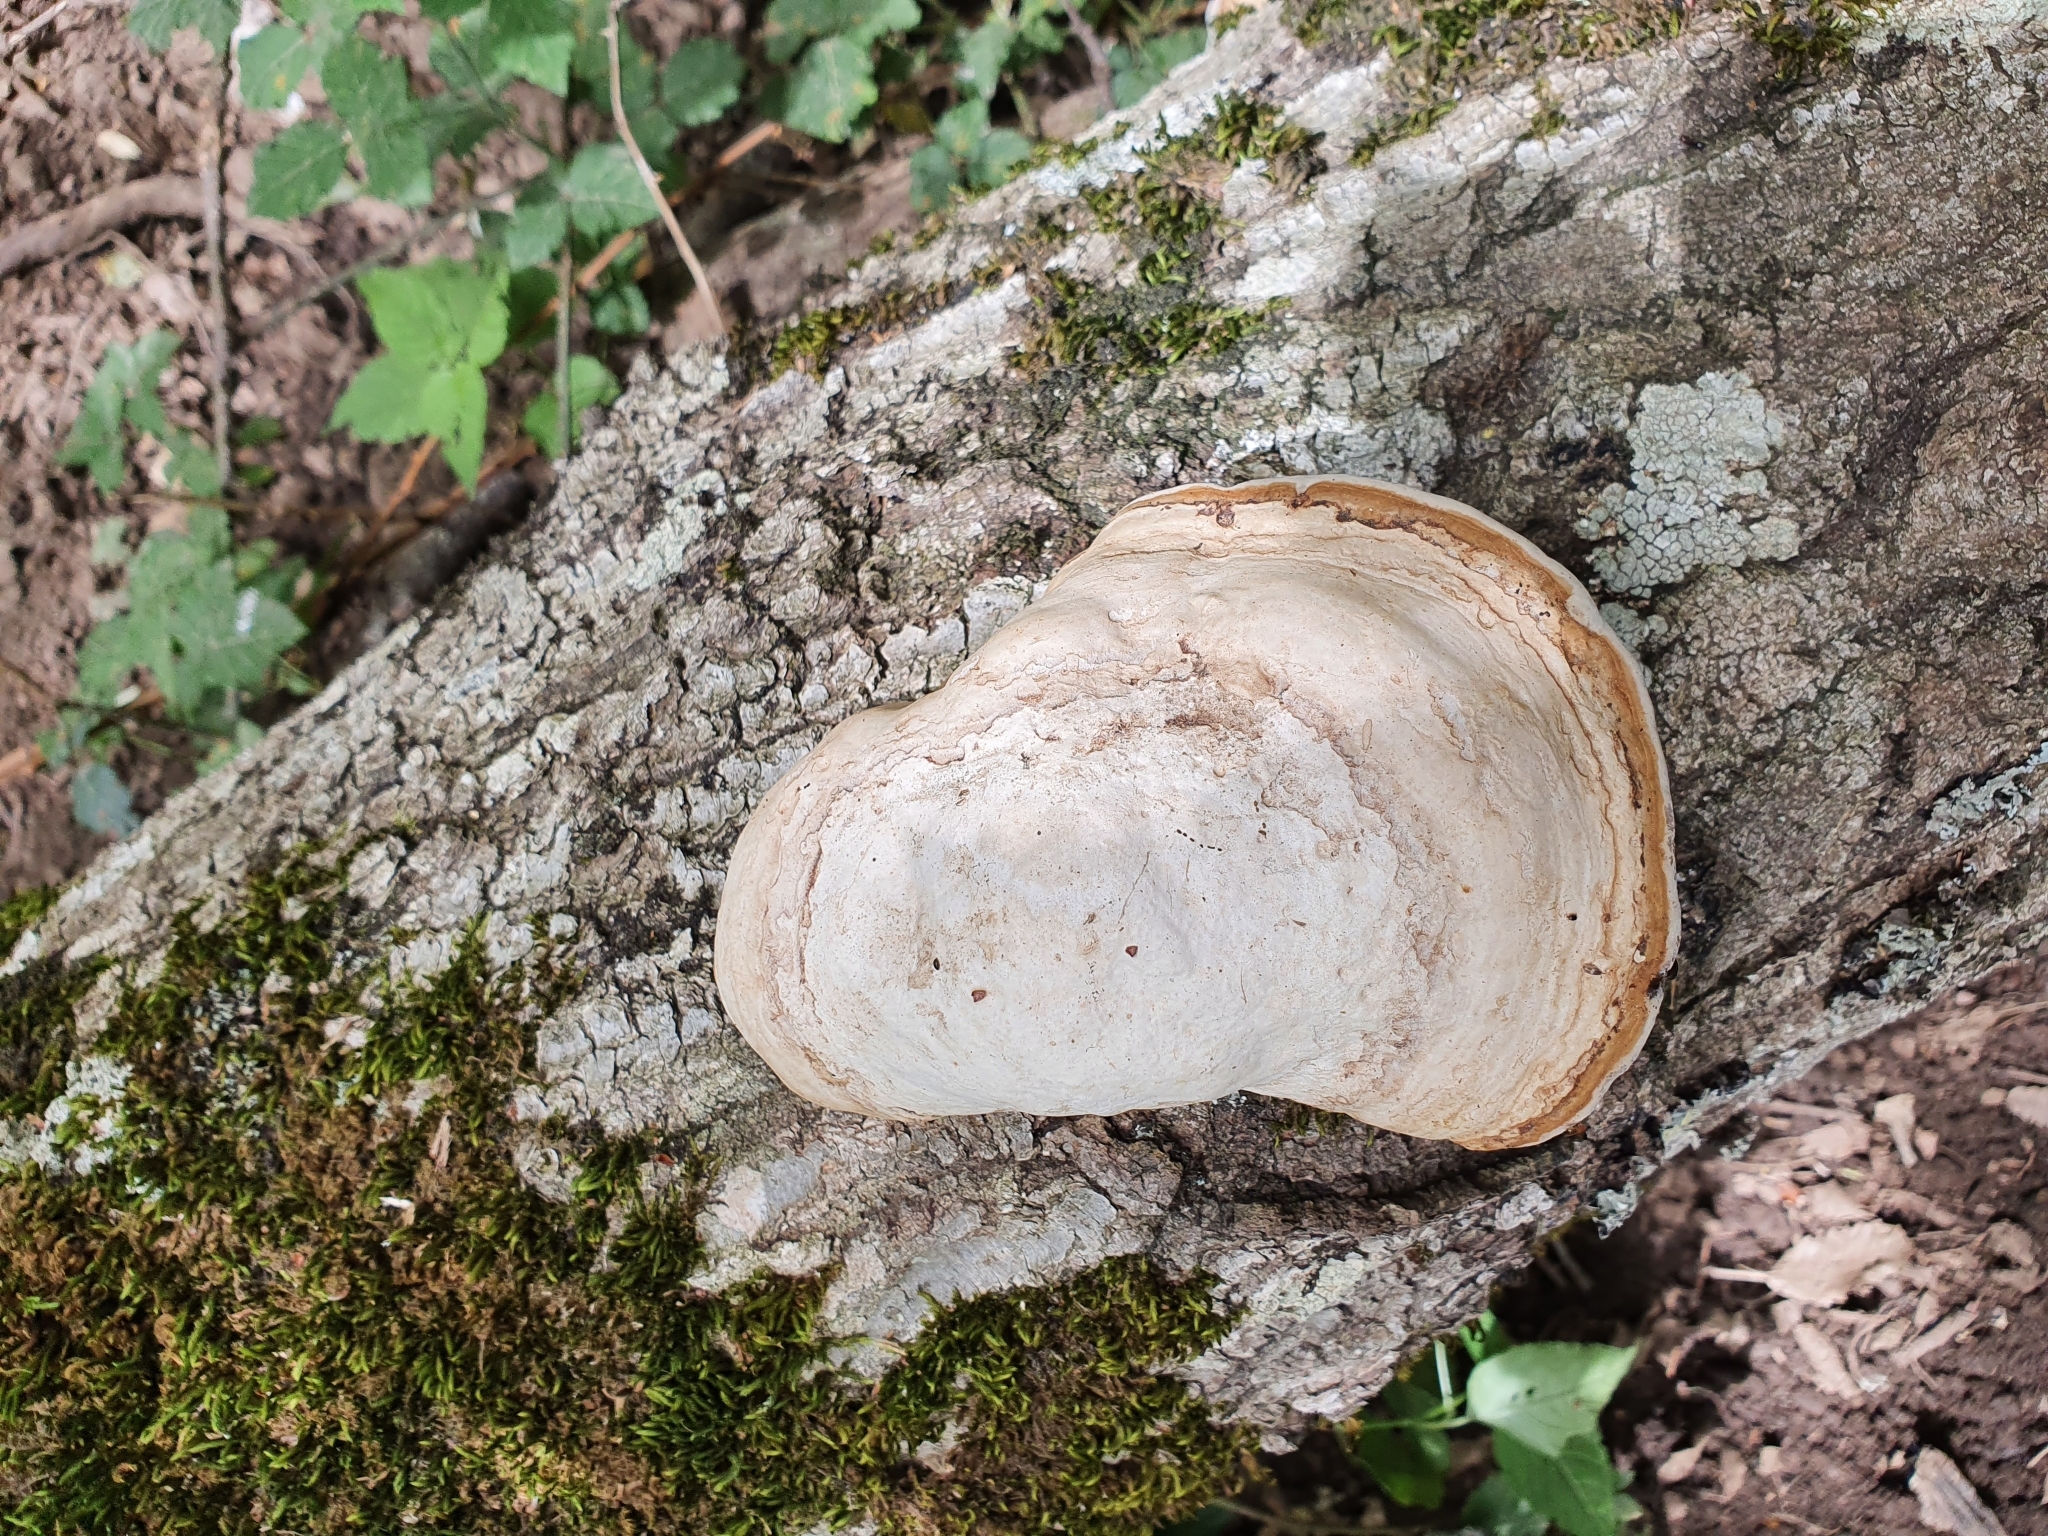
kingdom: Fungi
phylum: Basidiomycota
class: Agaricomycetes
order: Polyporales
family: Polyporaceae
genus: Fomes
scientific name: Fomes fomentarius
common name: Hoof fungus
